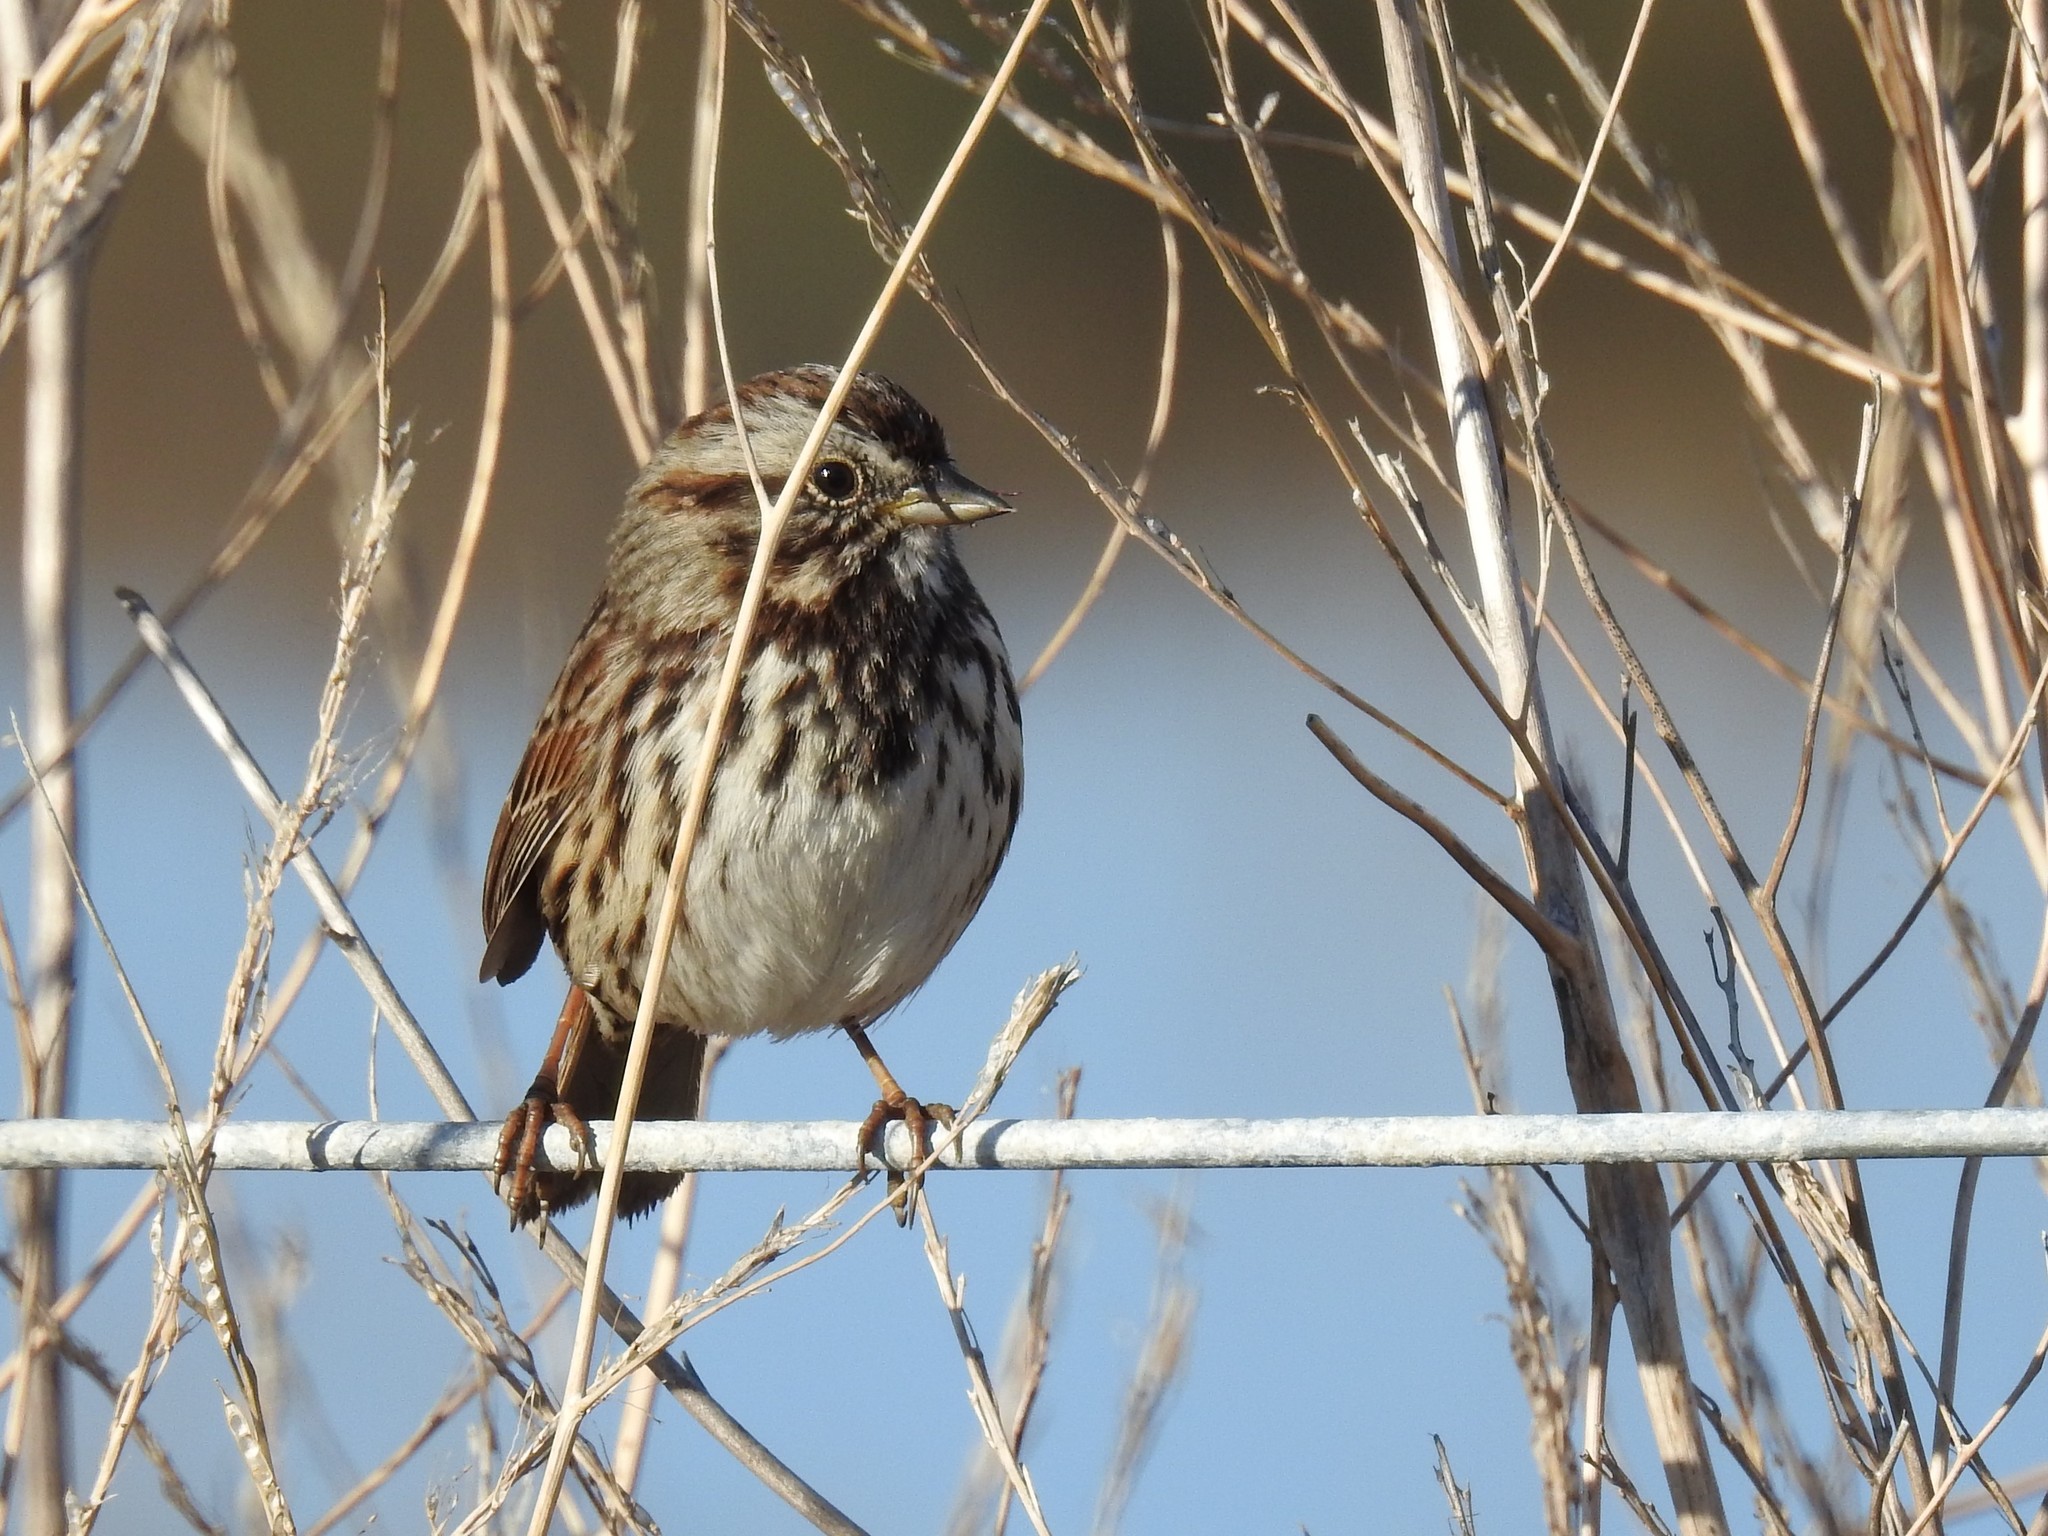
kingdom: Animalia
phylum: Chordata
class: Aves
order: Passeriformes
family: Passerellidae
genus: Melospiza
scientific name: Melospiza melodia
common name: Song sparrow
